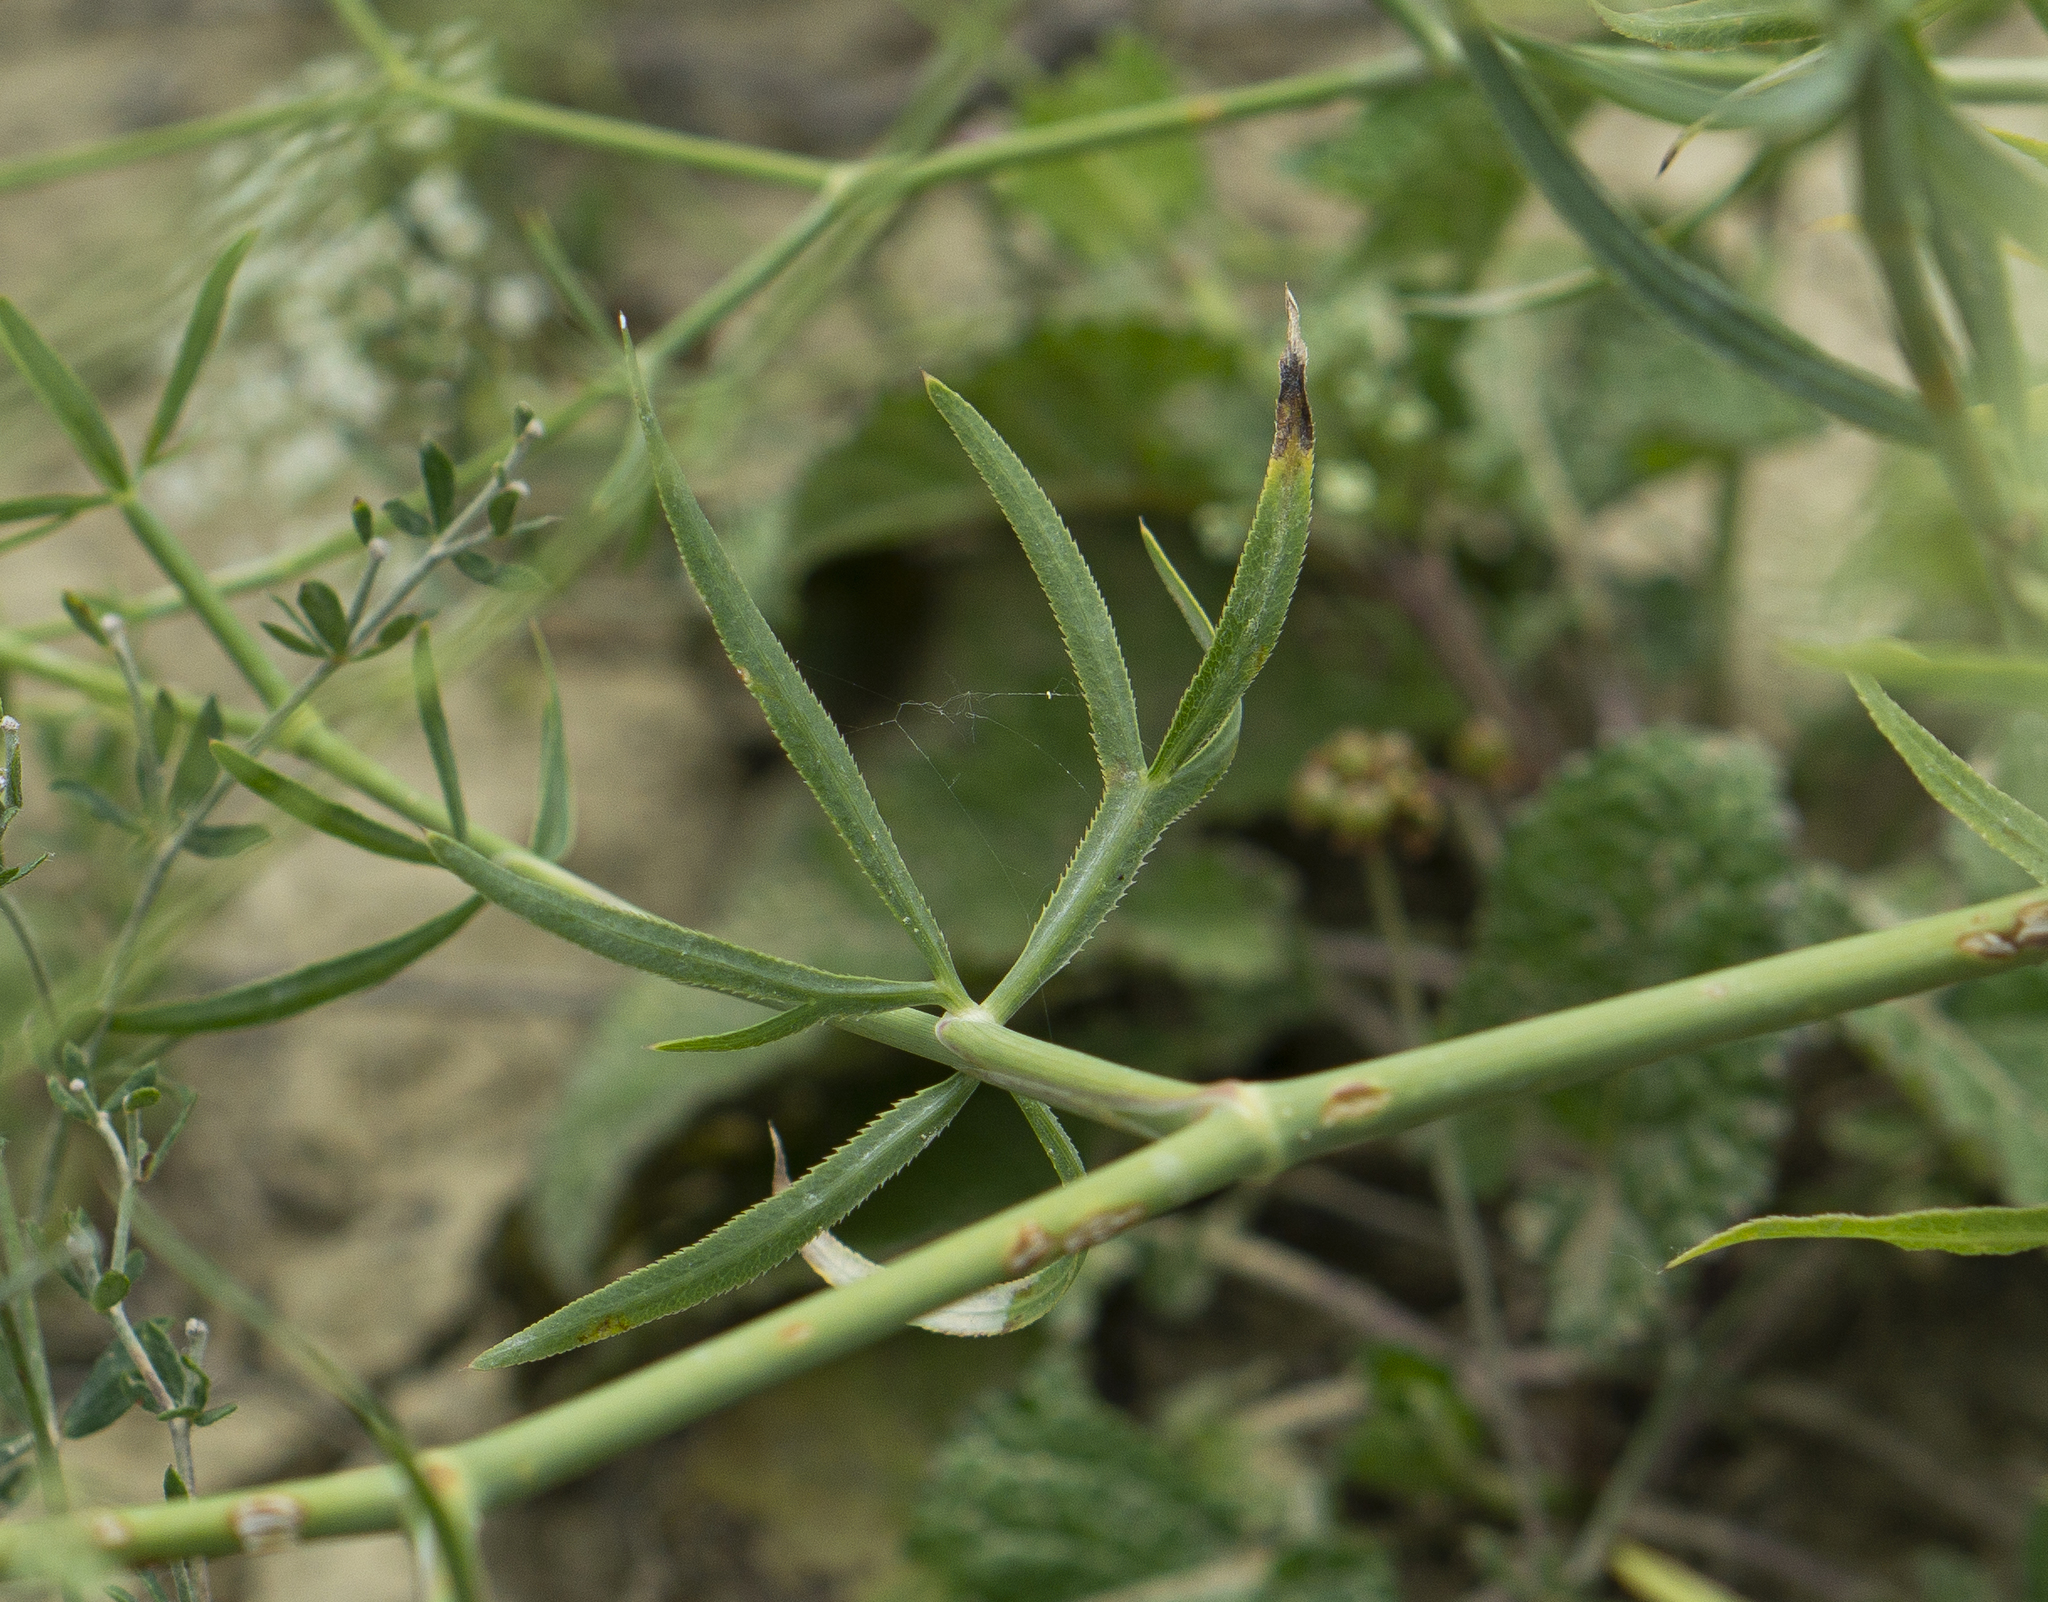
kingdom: Plantae
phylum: Tracheophyta
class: Magnoliopsida
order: Apiales
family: Apiaceae
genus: Falcaria
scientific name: Falcaria vulgaris
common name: Longleaf
